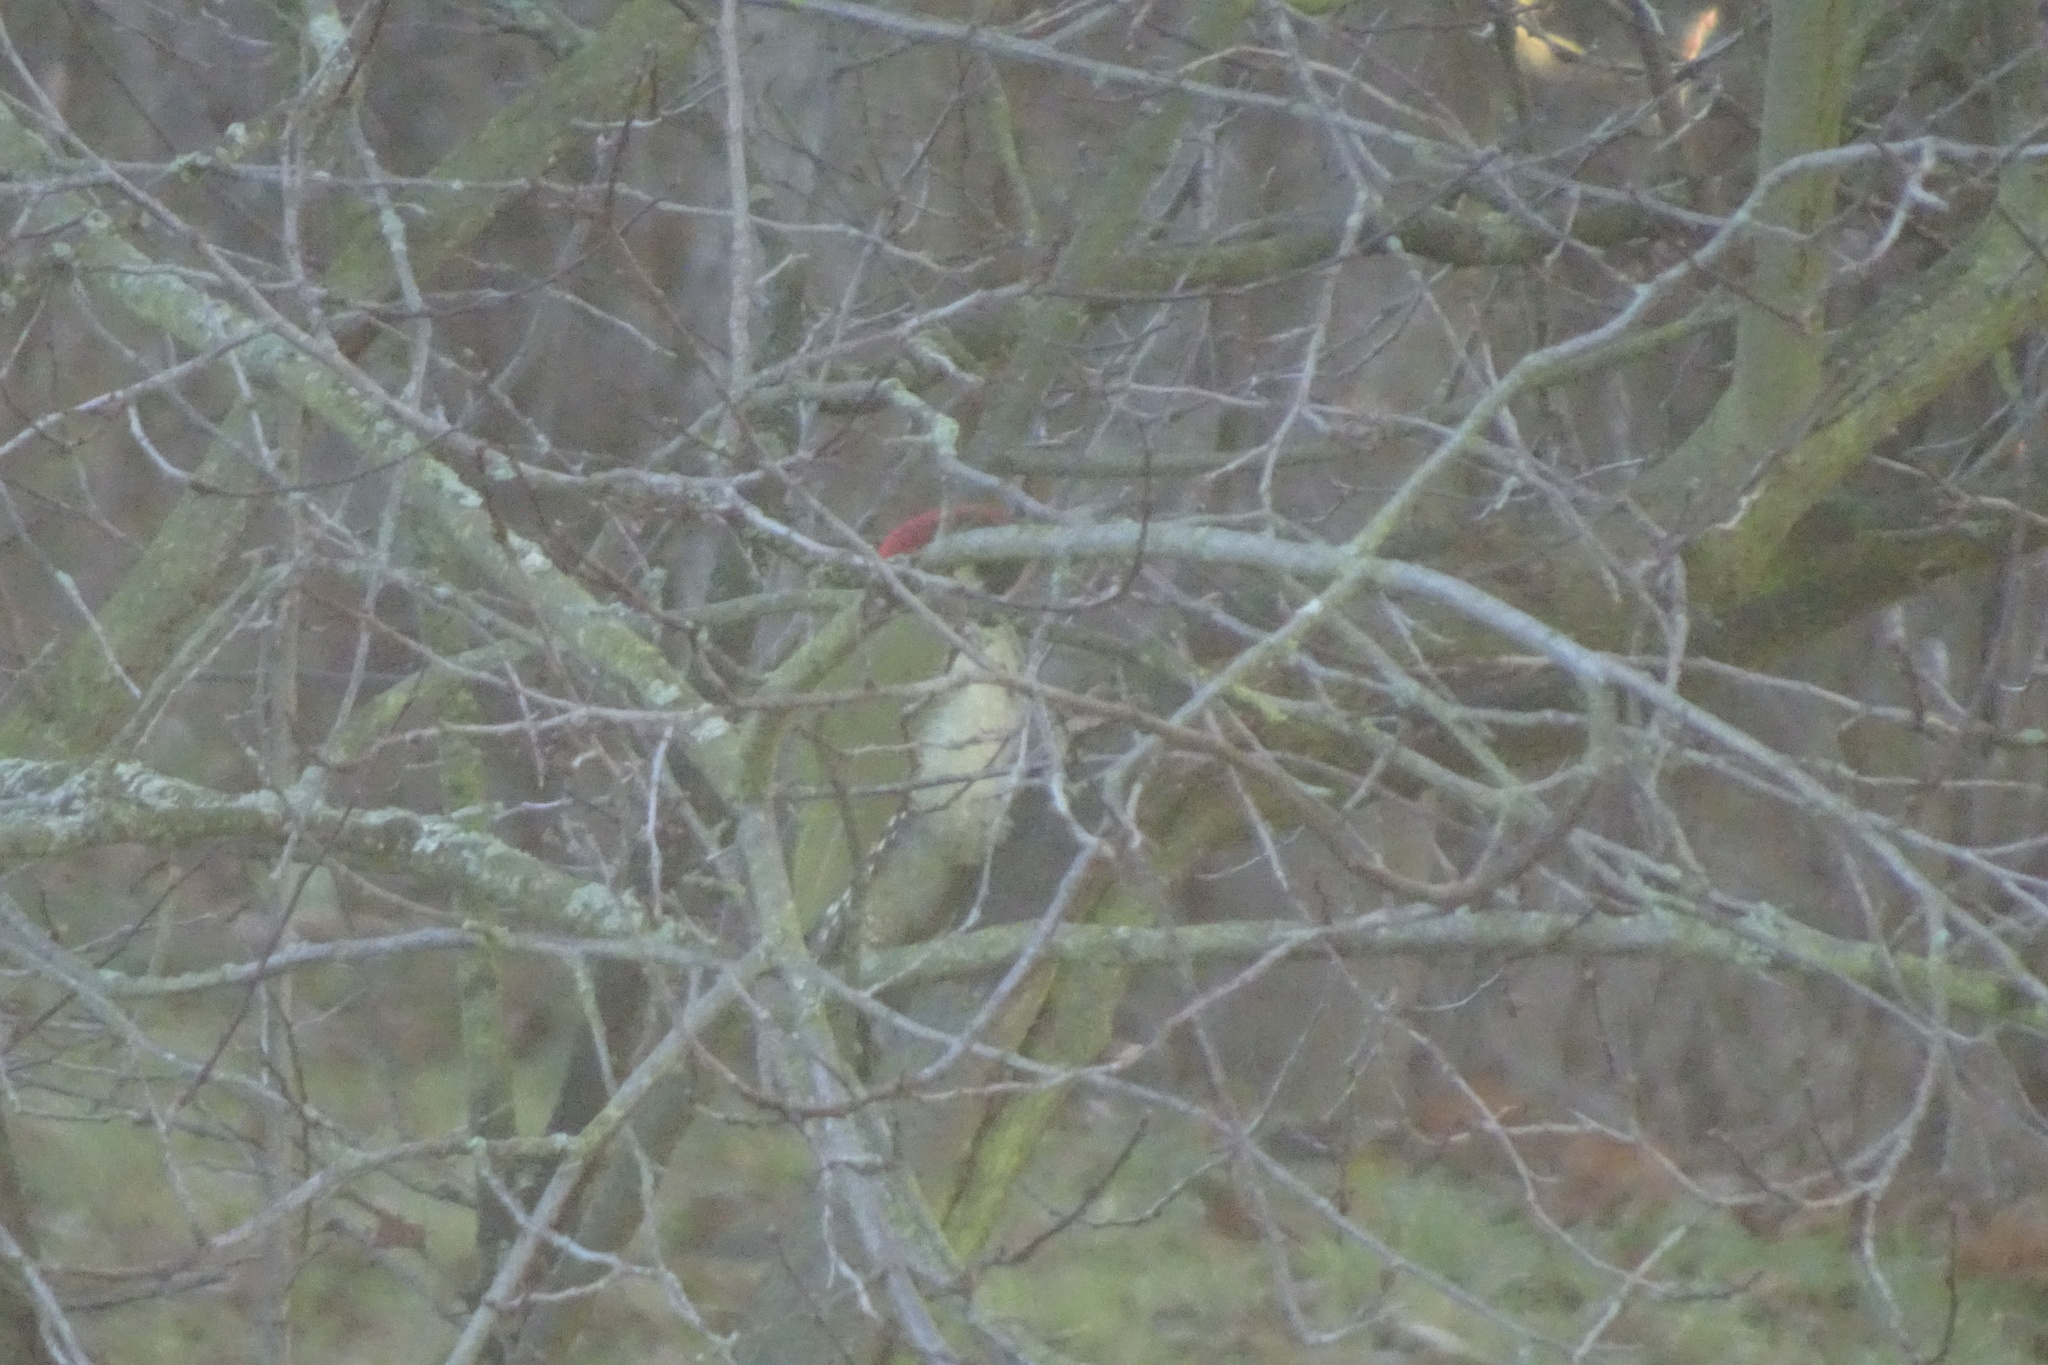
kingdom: Animalia
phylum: Chordata
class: Aves
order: Piciformes
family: Picidae
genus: Picus
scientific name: Picus viridis
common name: European green woodpecker
